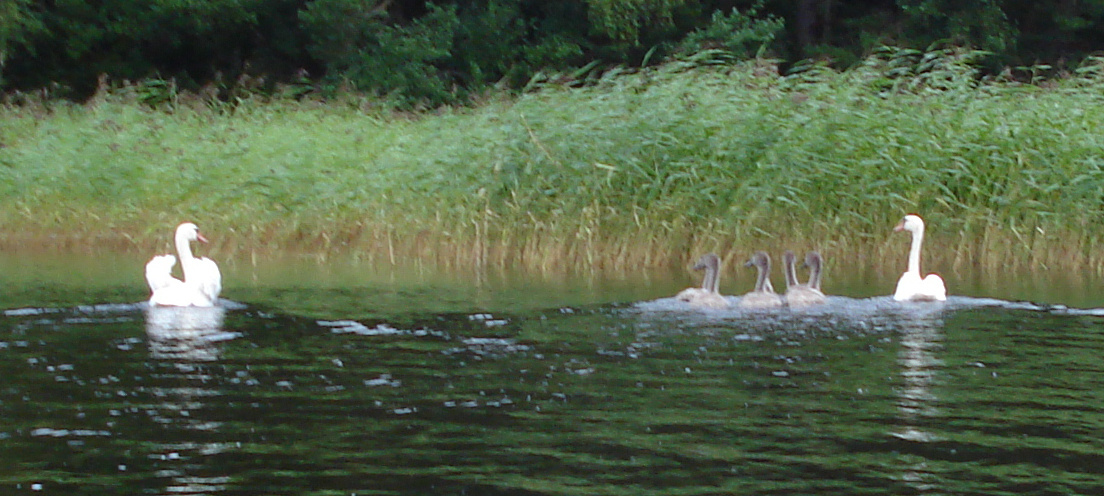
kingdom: Animalia
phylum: Chordata
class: Aves
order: Anseriformes
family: Anatidae
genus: Cygnus
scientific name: Cygnus olor
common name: Mute swan
